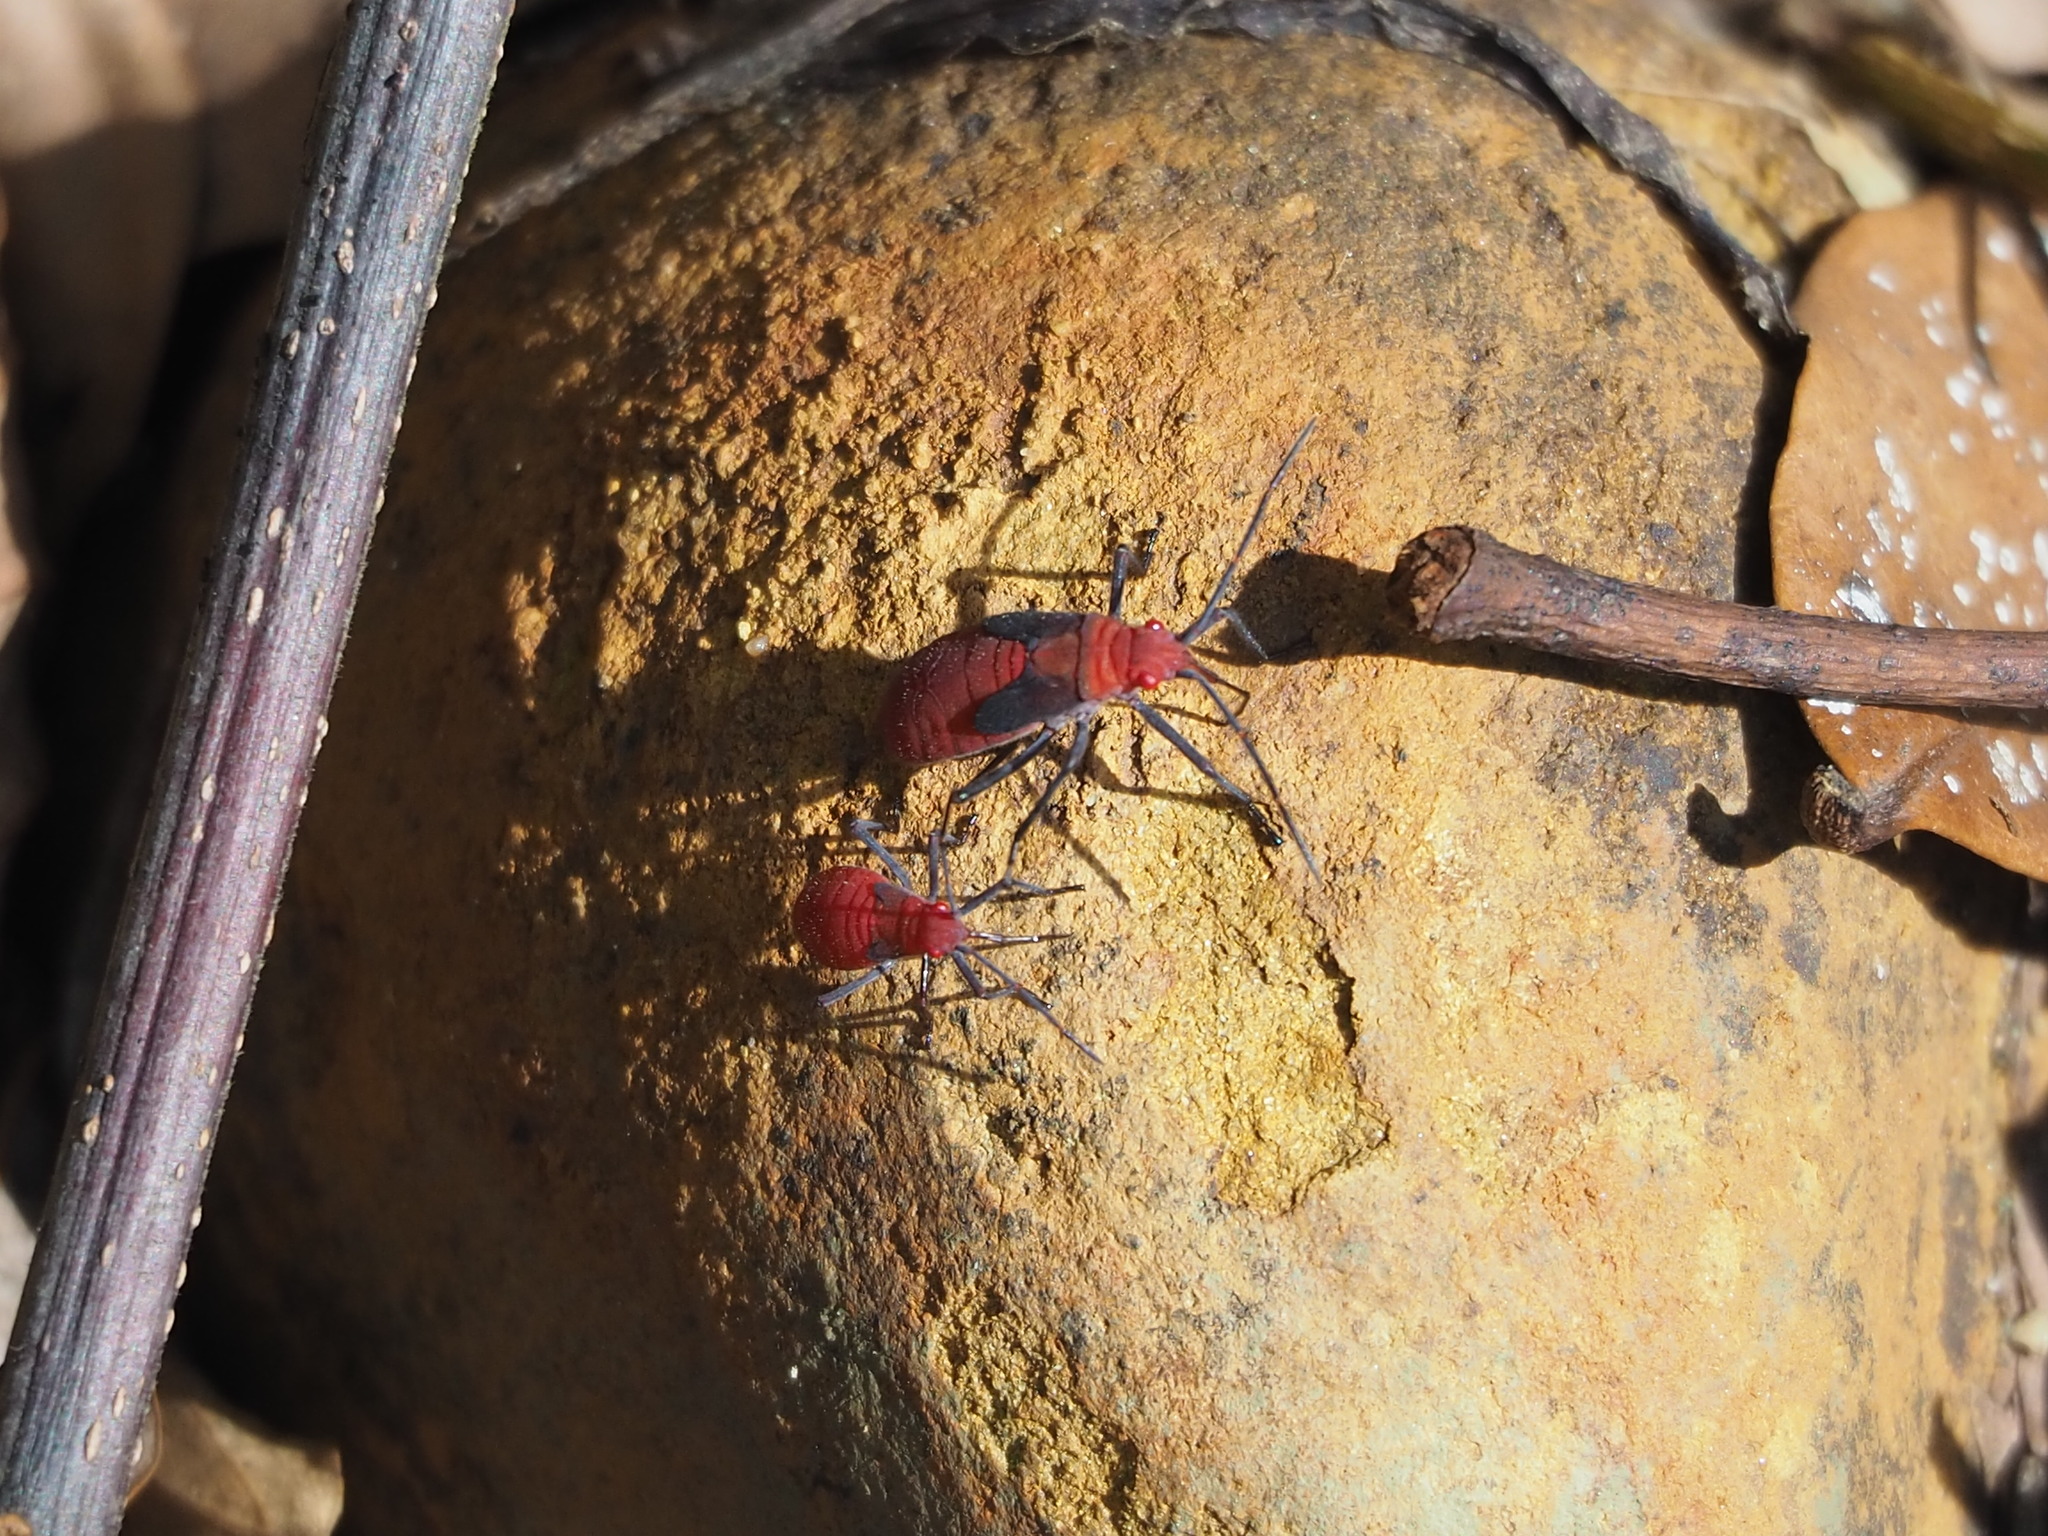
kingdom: Animalia
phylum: Arthropoda
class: Insecta
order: Hemiptera
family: Rhopalidae
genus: Leptocoris
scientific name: Leptocoris vicinus
